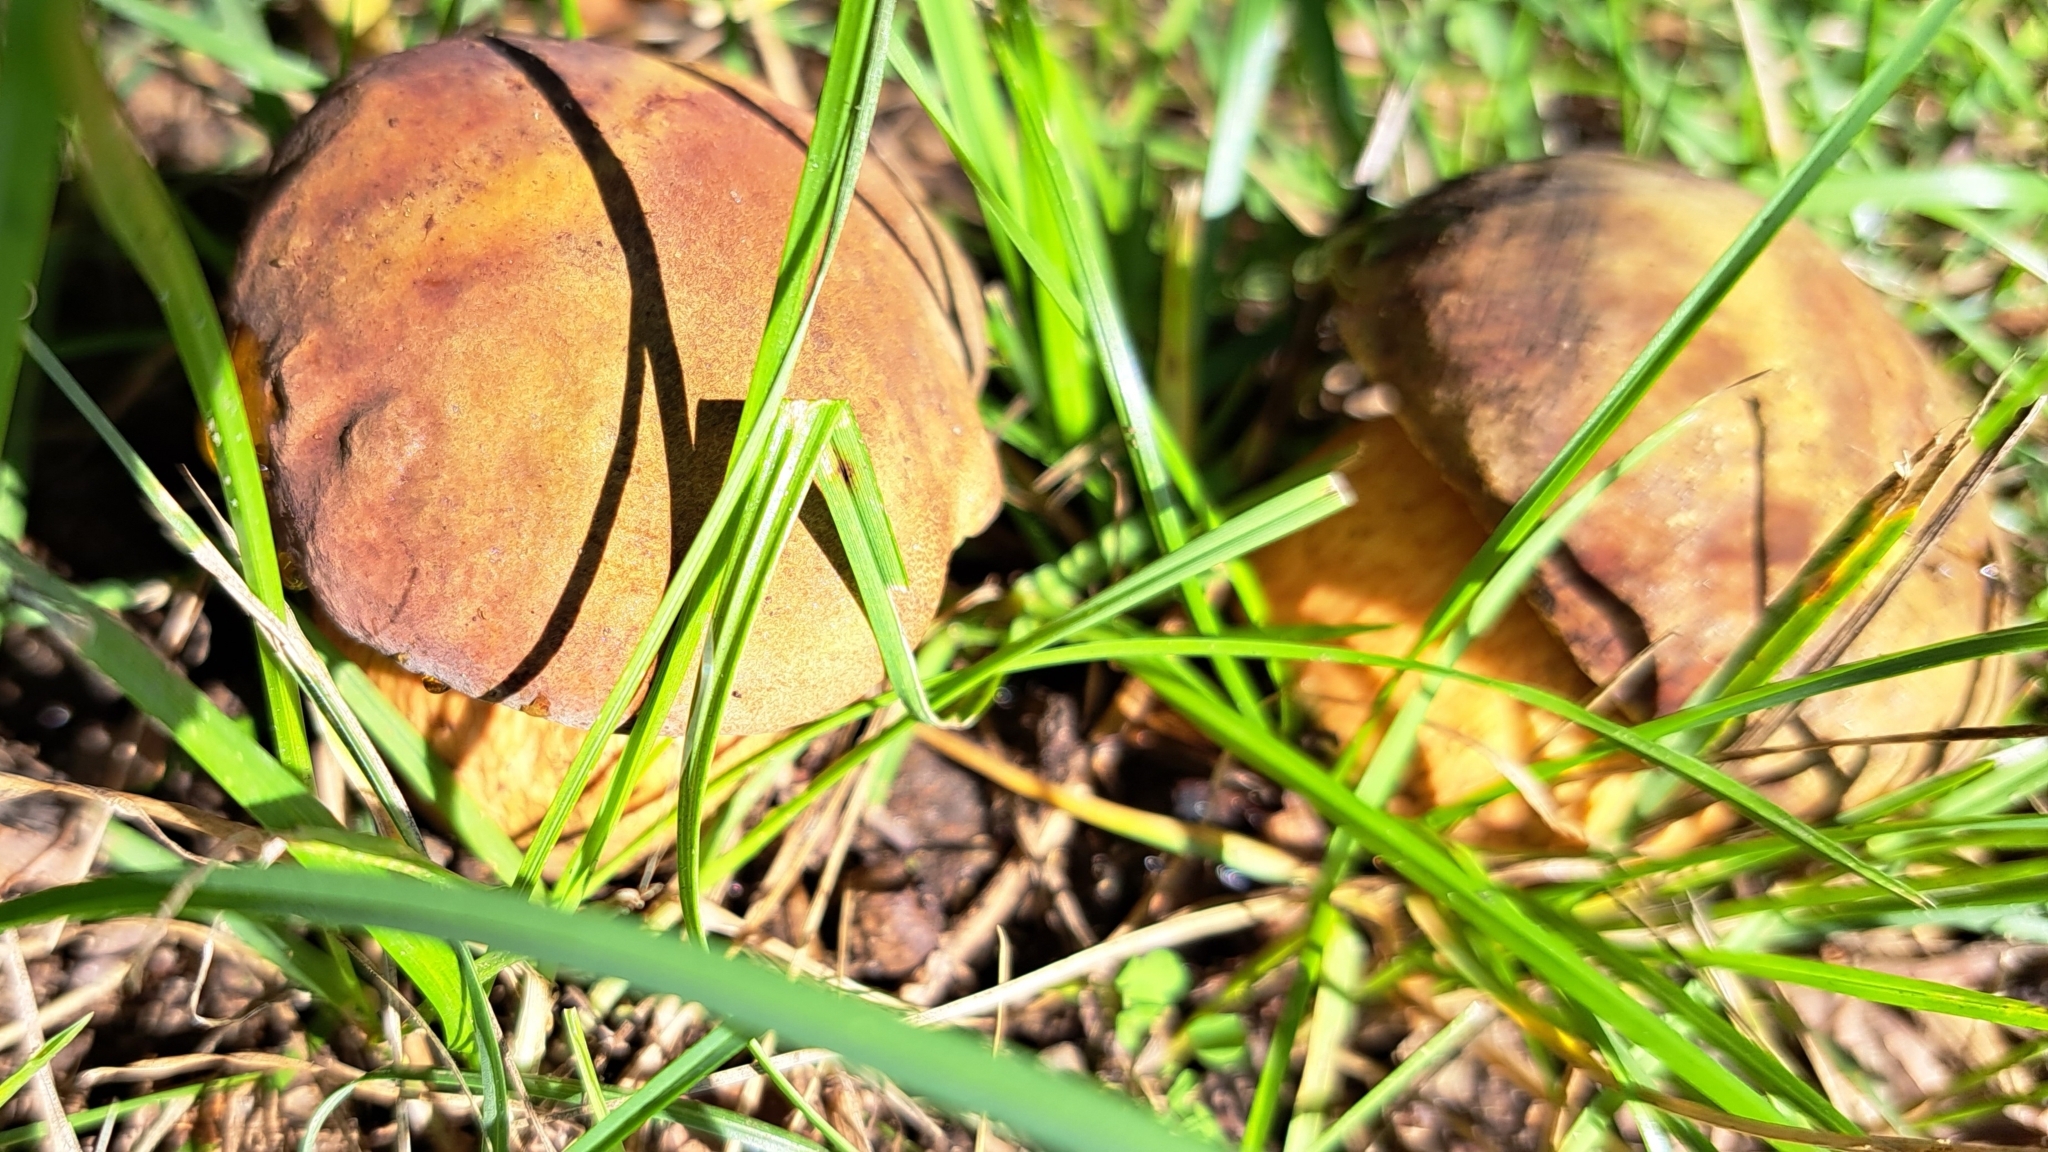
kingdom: Fungi
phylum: Basidiomycota
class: Agaricomycetes
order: Boletales
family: Boletaceae
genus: Suillellus
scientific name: Suillellus luridus
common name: Lurid bolete
